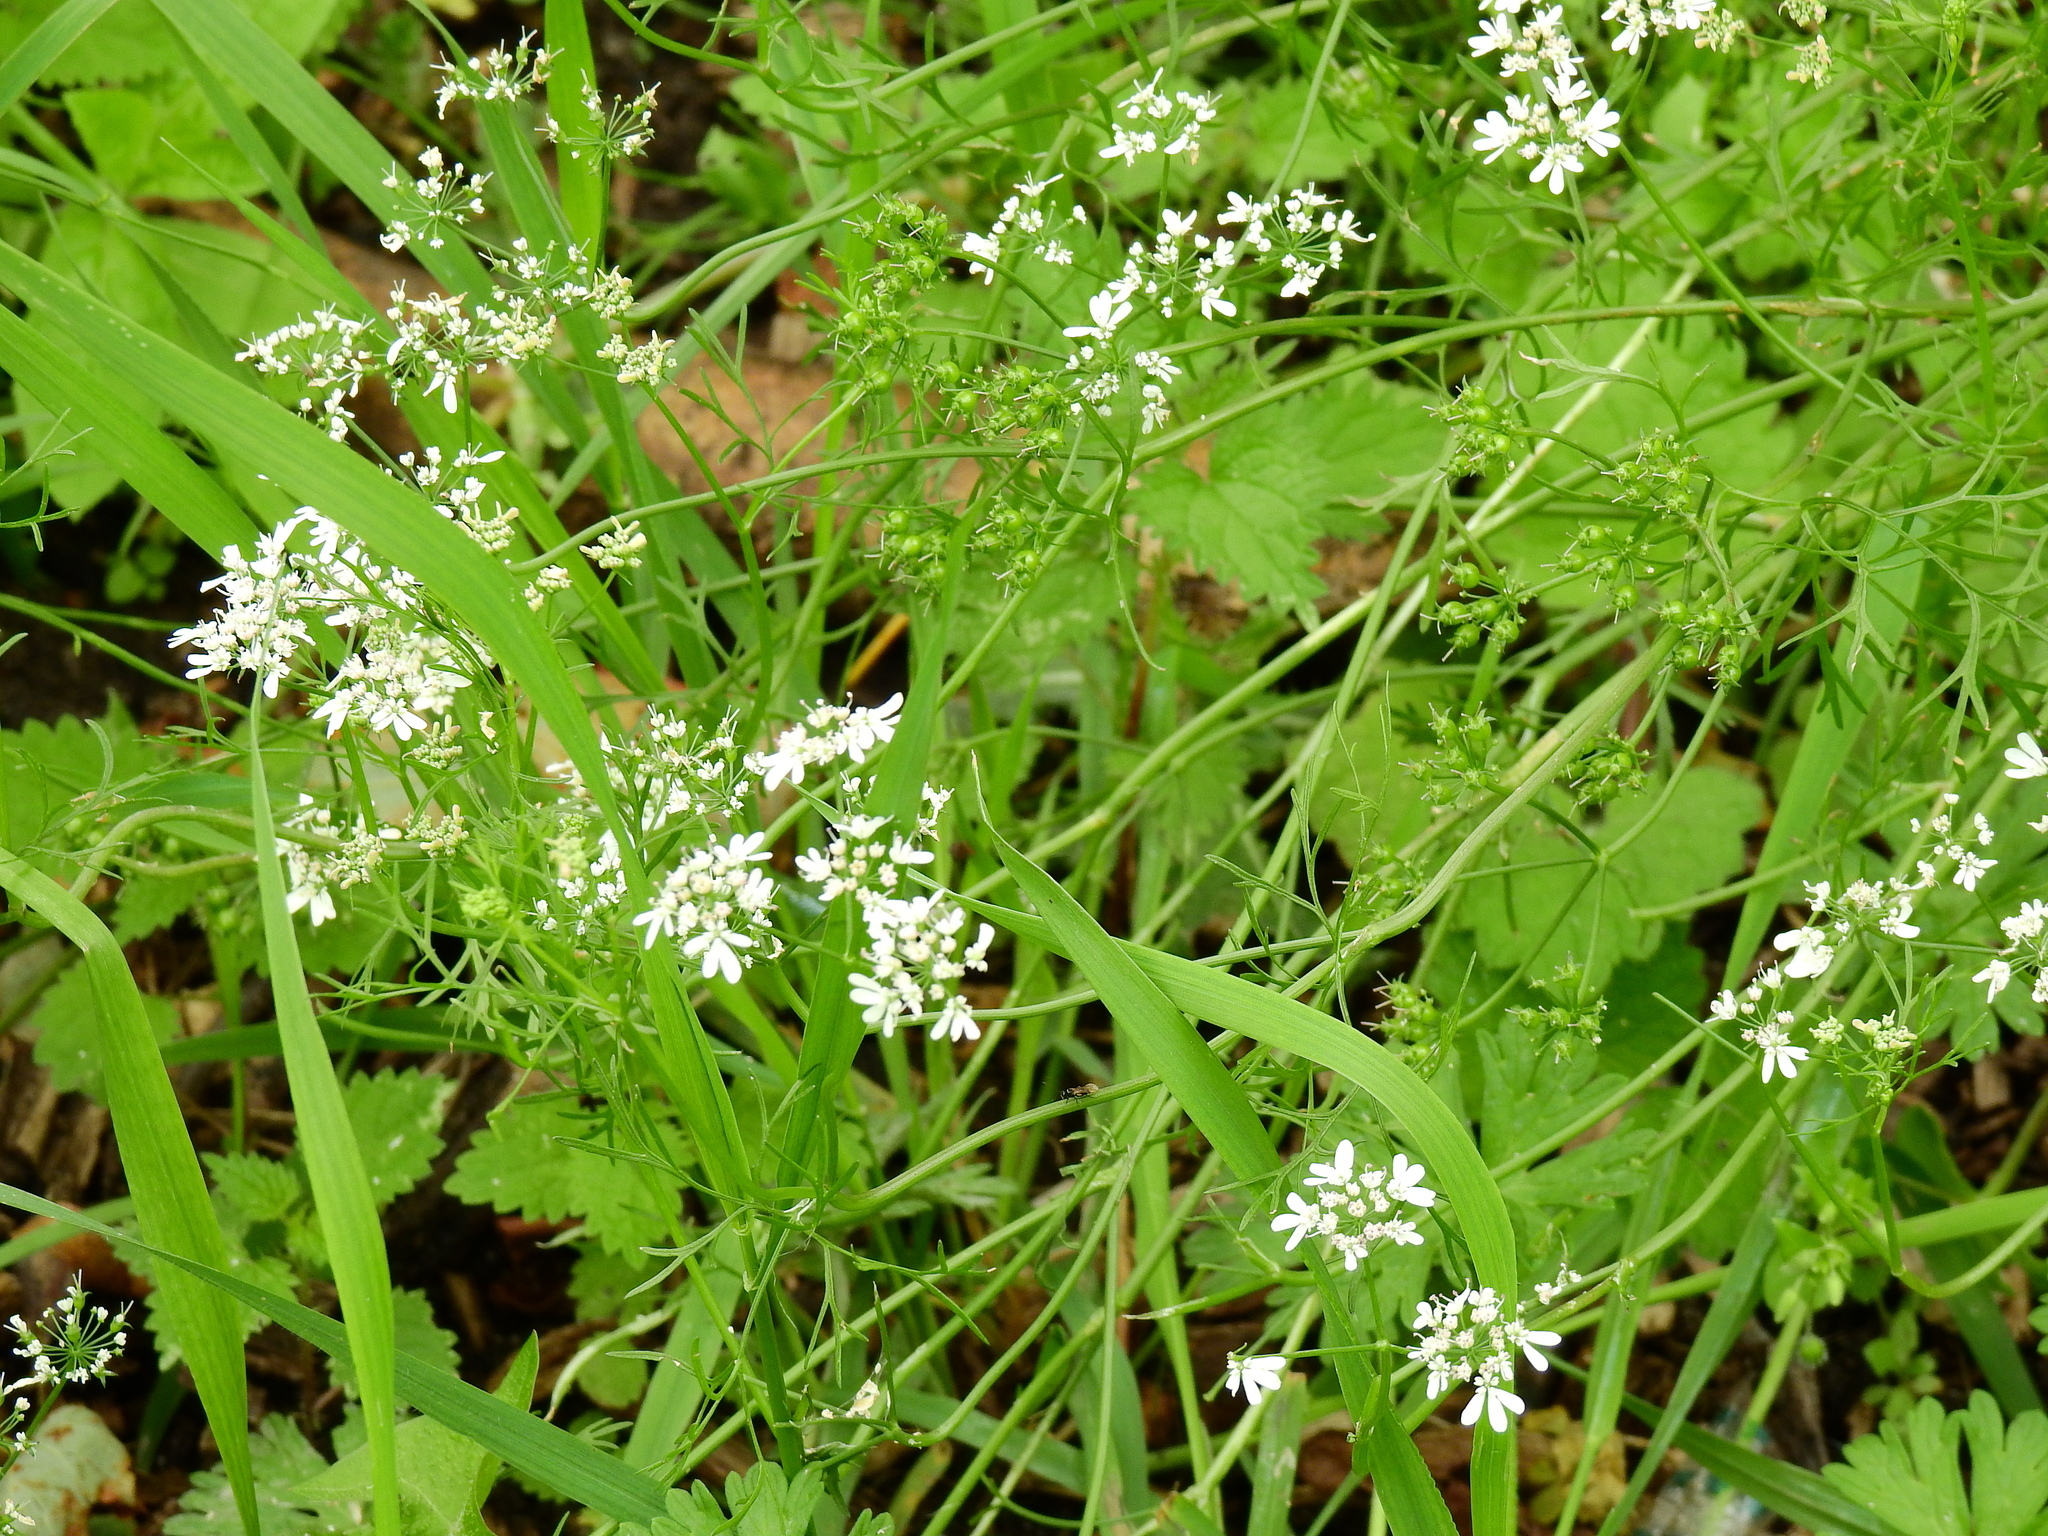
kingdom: Plantae
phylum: Tracheophyta
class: Magnoliopsida
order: Apiales
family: Apiaceae
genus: Coriandrum
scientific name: Coriandrum sativum
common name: Coriander
